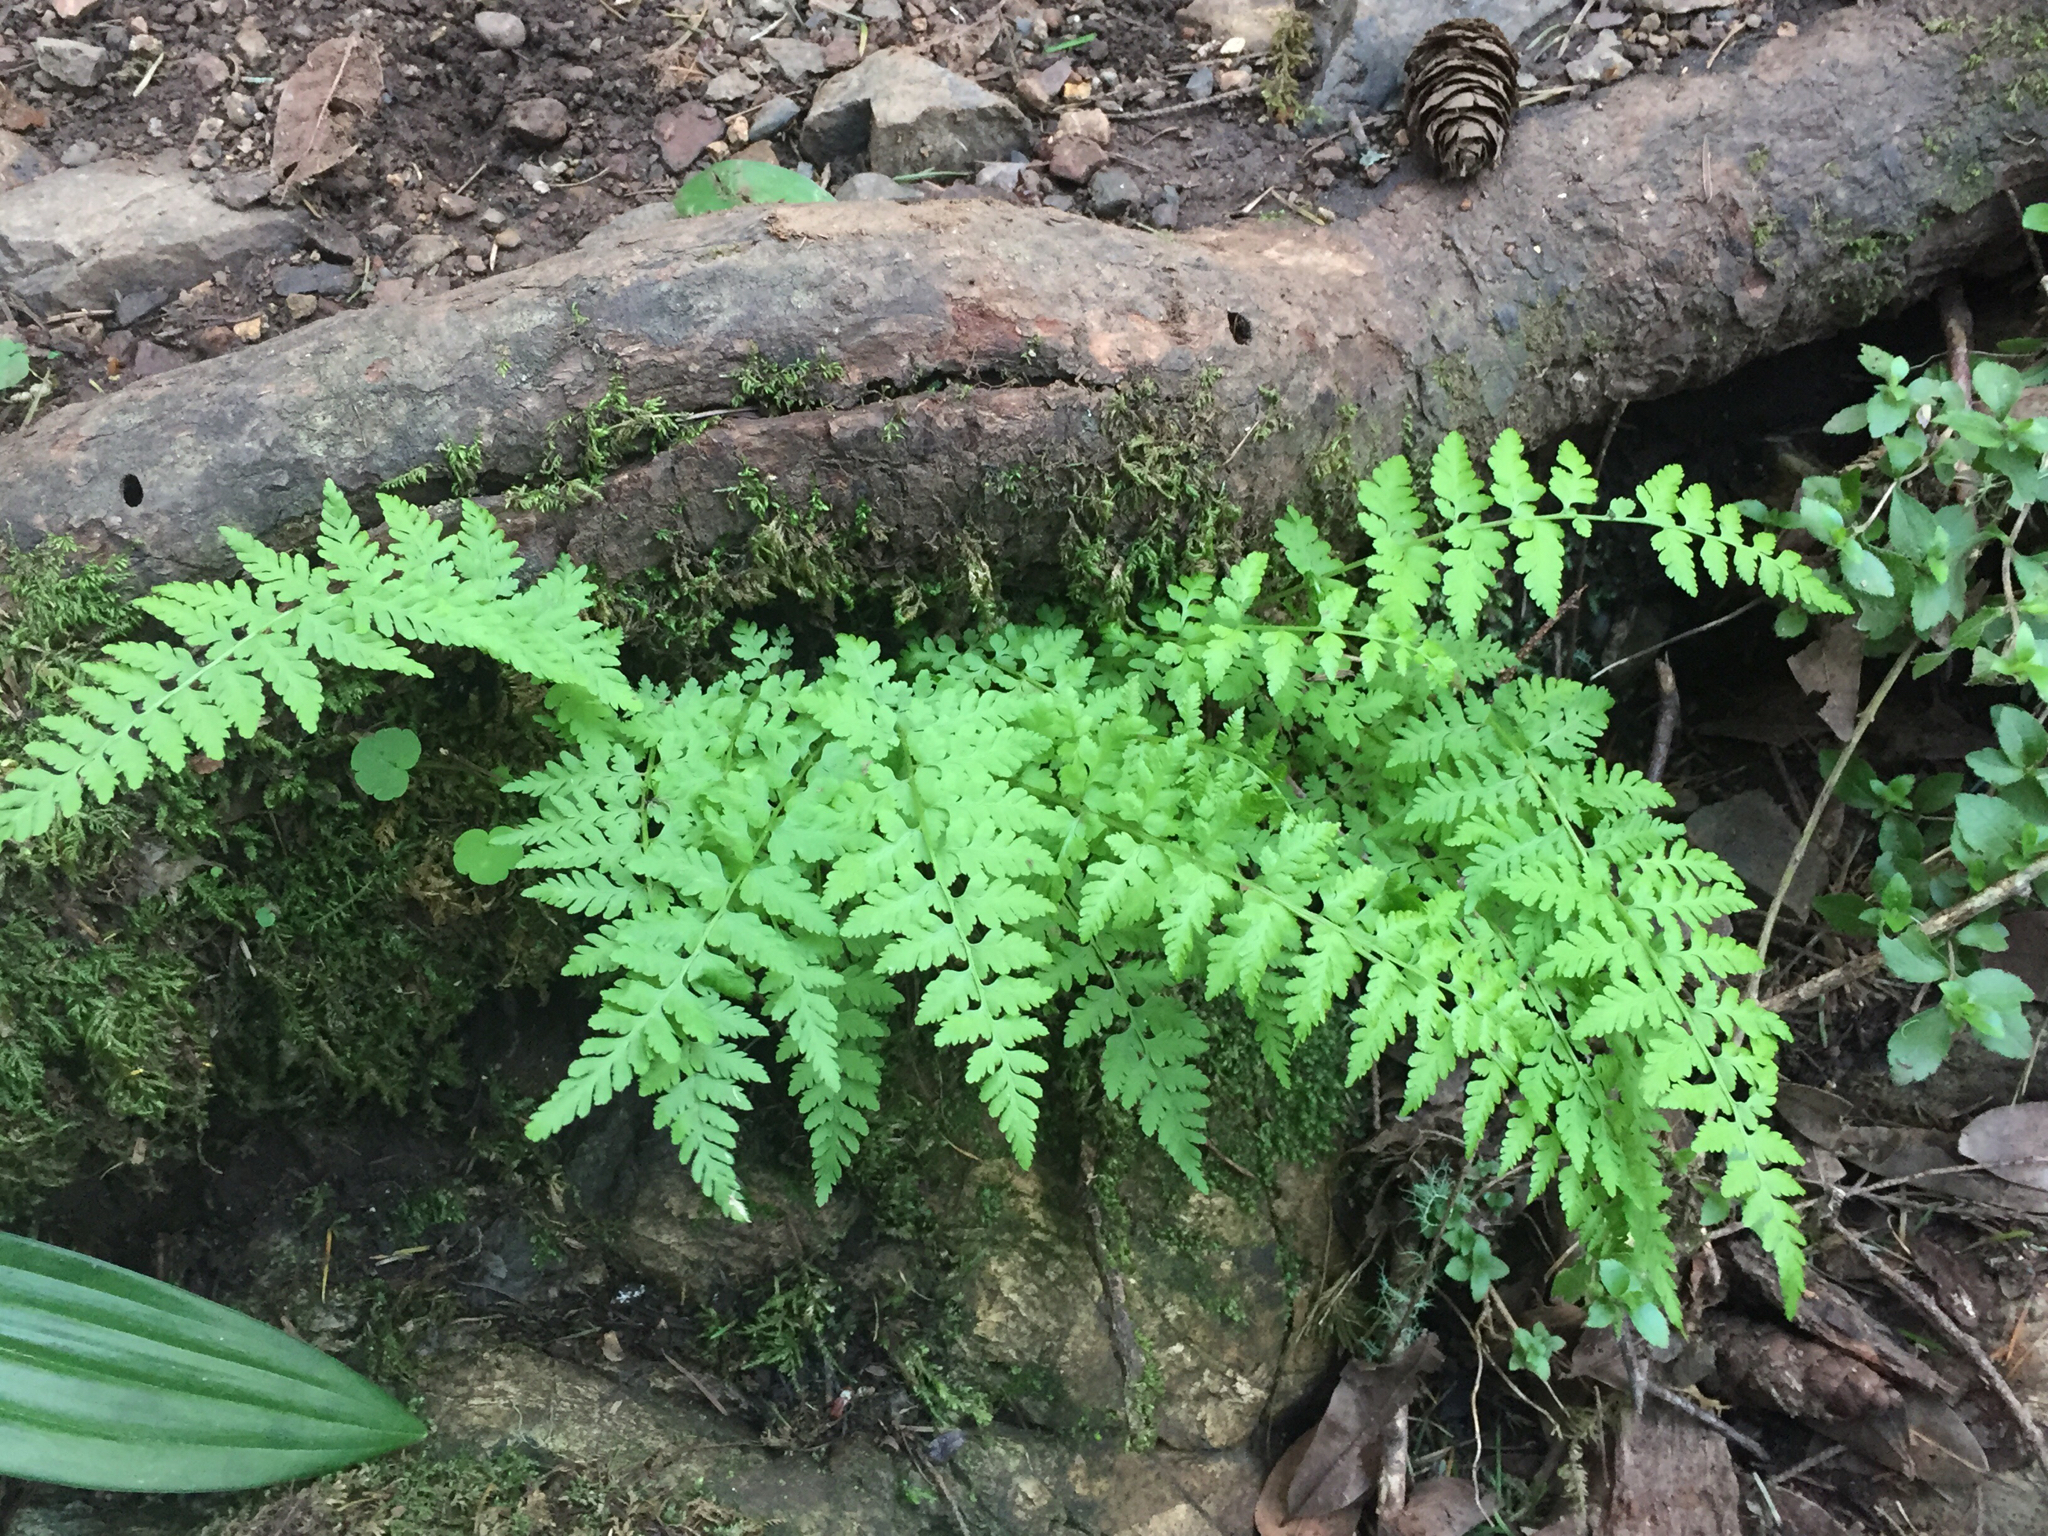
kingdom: Plantae
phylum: Tracheophyta
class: Polypodiopsida
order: Polypodiales
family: Cystopteridaceae
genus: Cystopteris
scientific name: Cystopteris fragilis
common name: Brittle bladder fern
